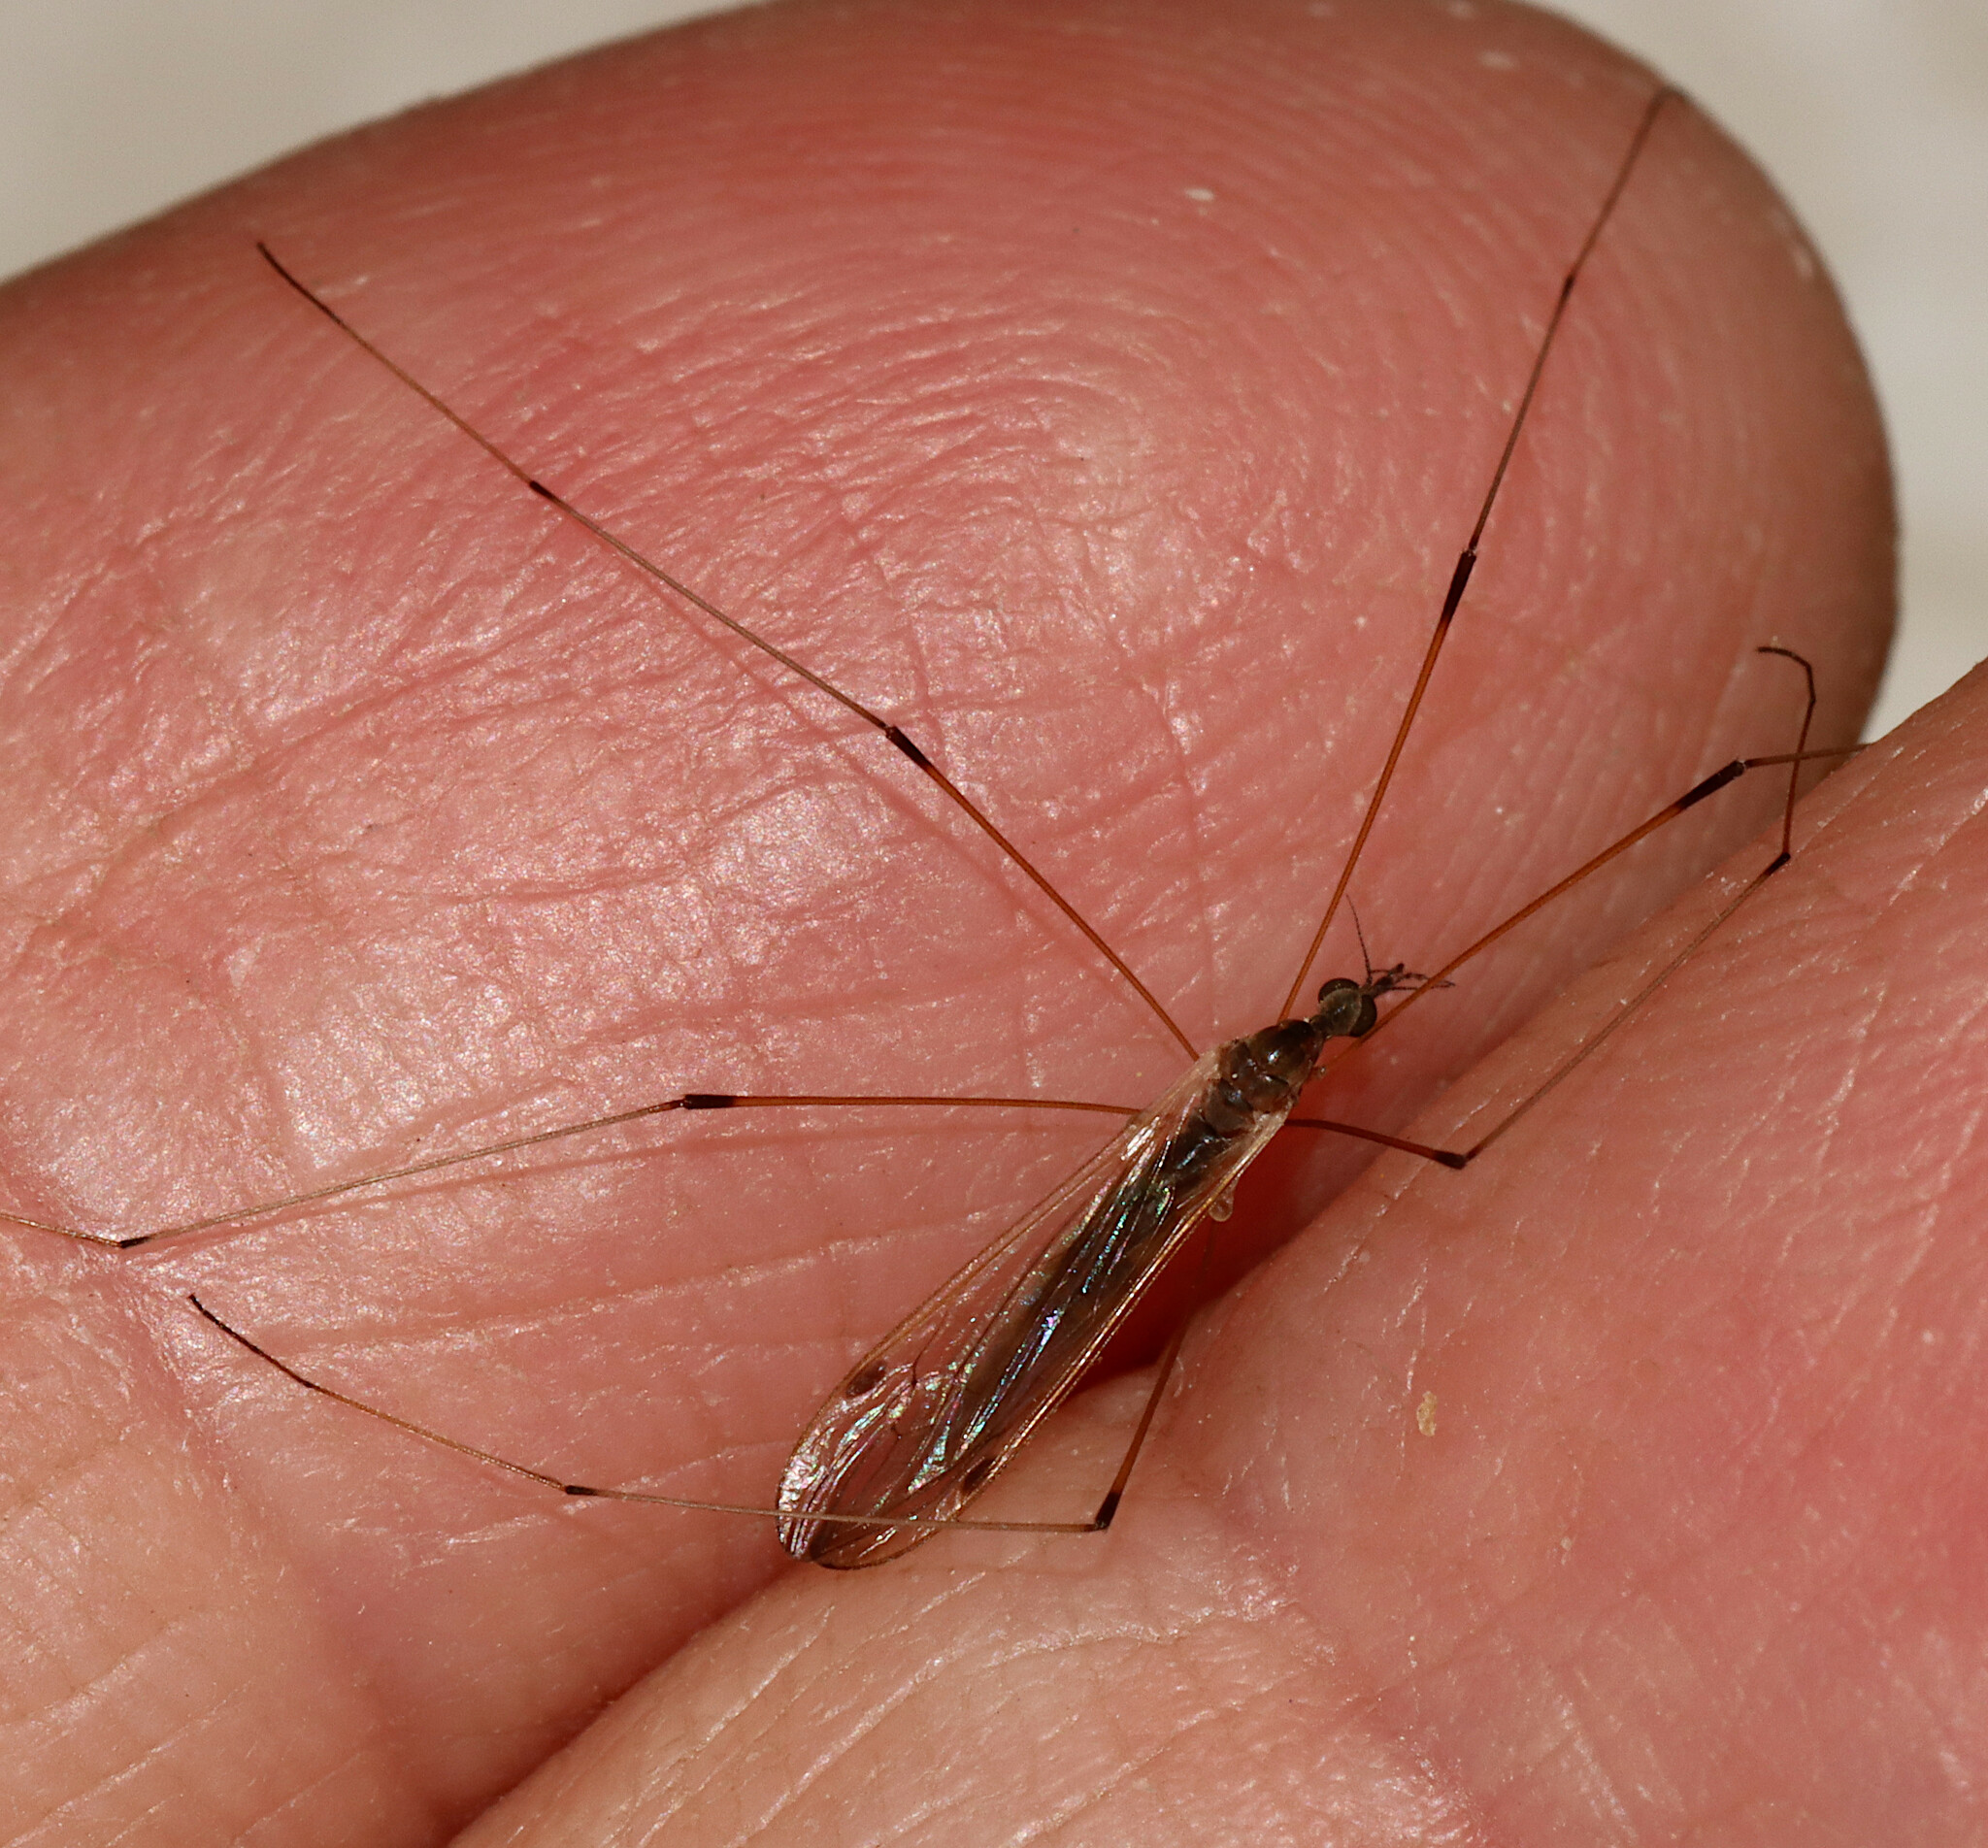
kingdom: Animalia
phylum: Arthropoda
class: Insecta
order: Diptera
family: Limoniidae
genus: Helius
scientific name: Helius flavipes
